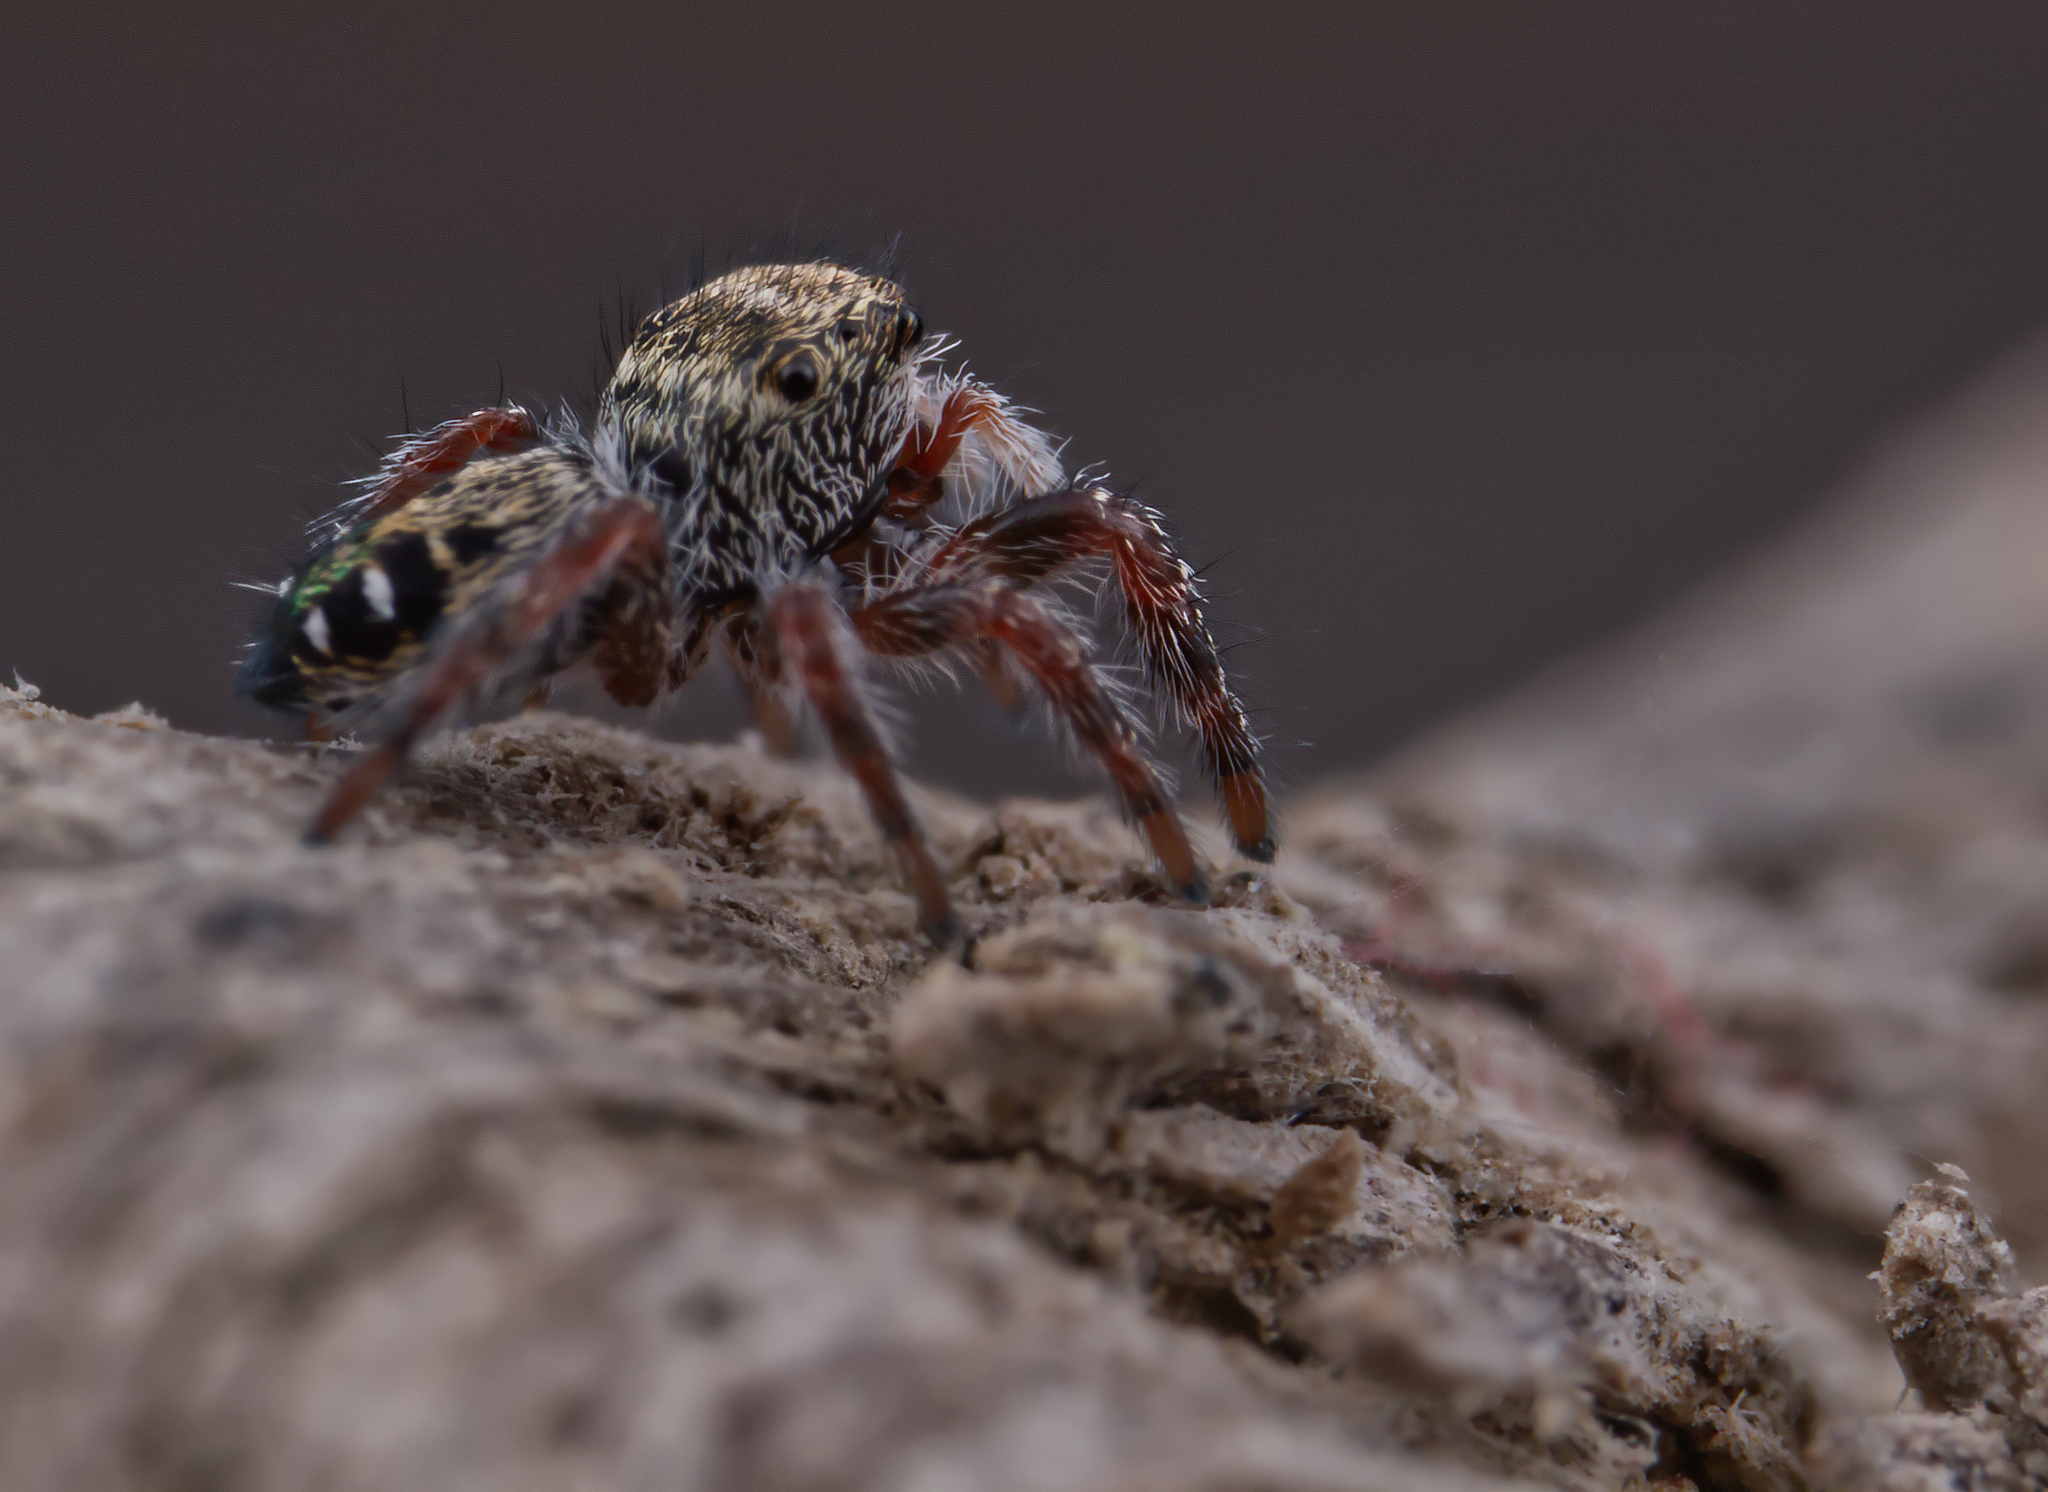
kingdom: Animalia
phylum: Arthropoda
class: Arachnida
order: Araneae
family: Salticidae
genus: Phidippus
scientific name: Phidippus insignarius
